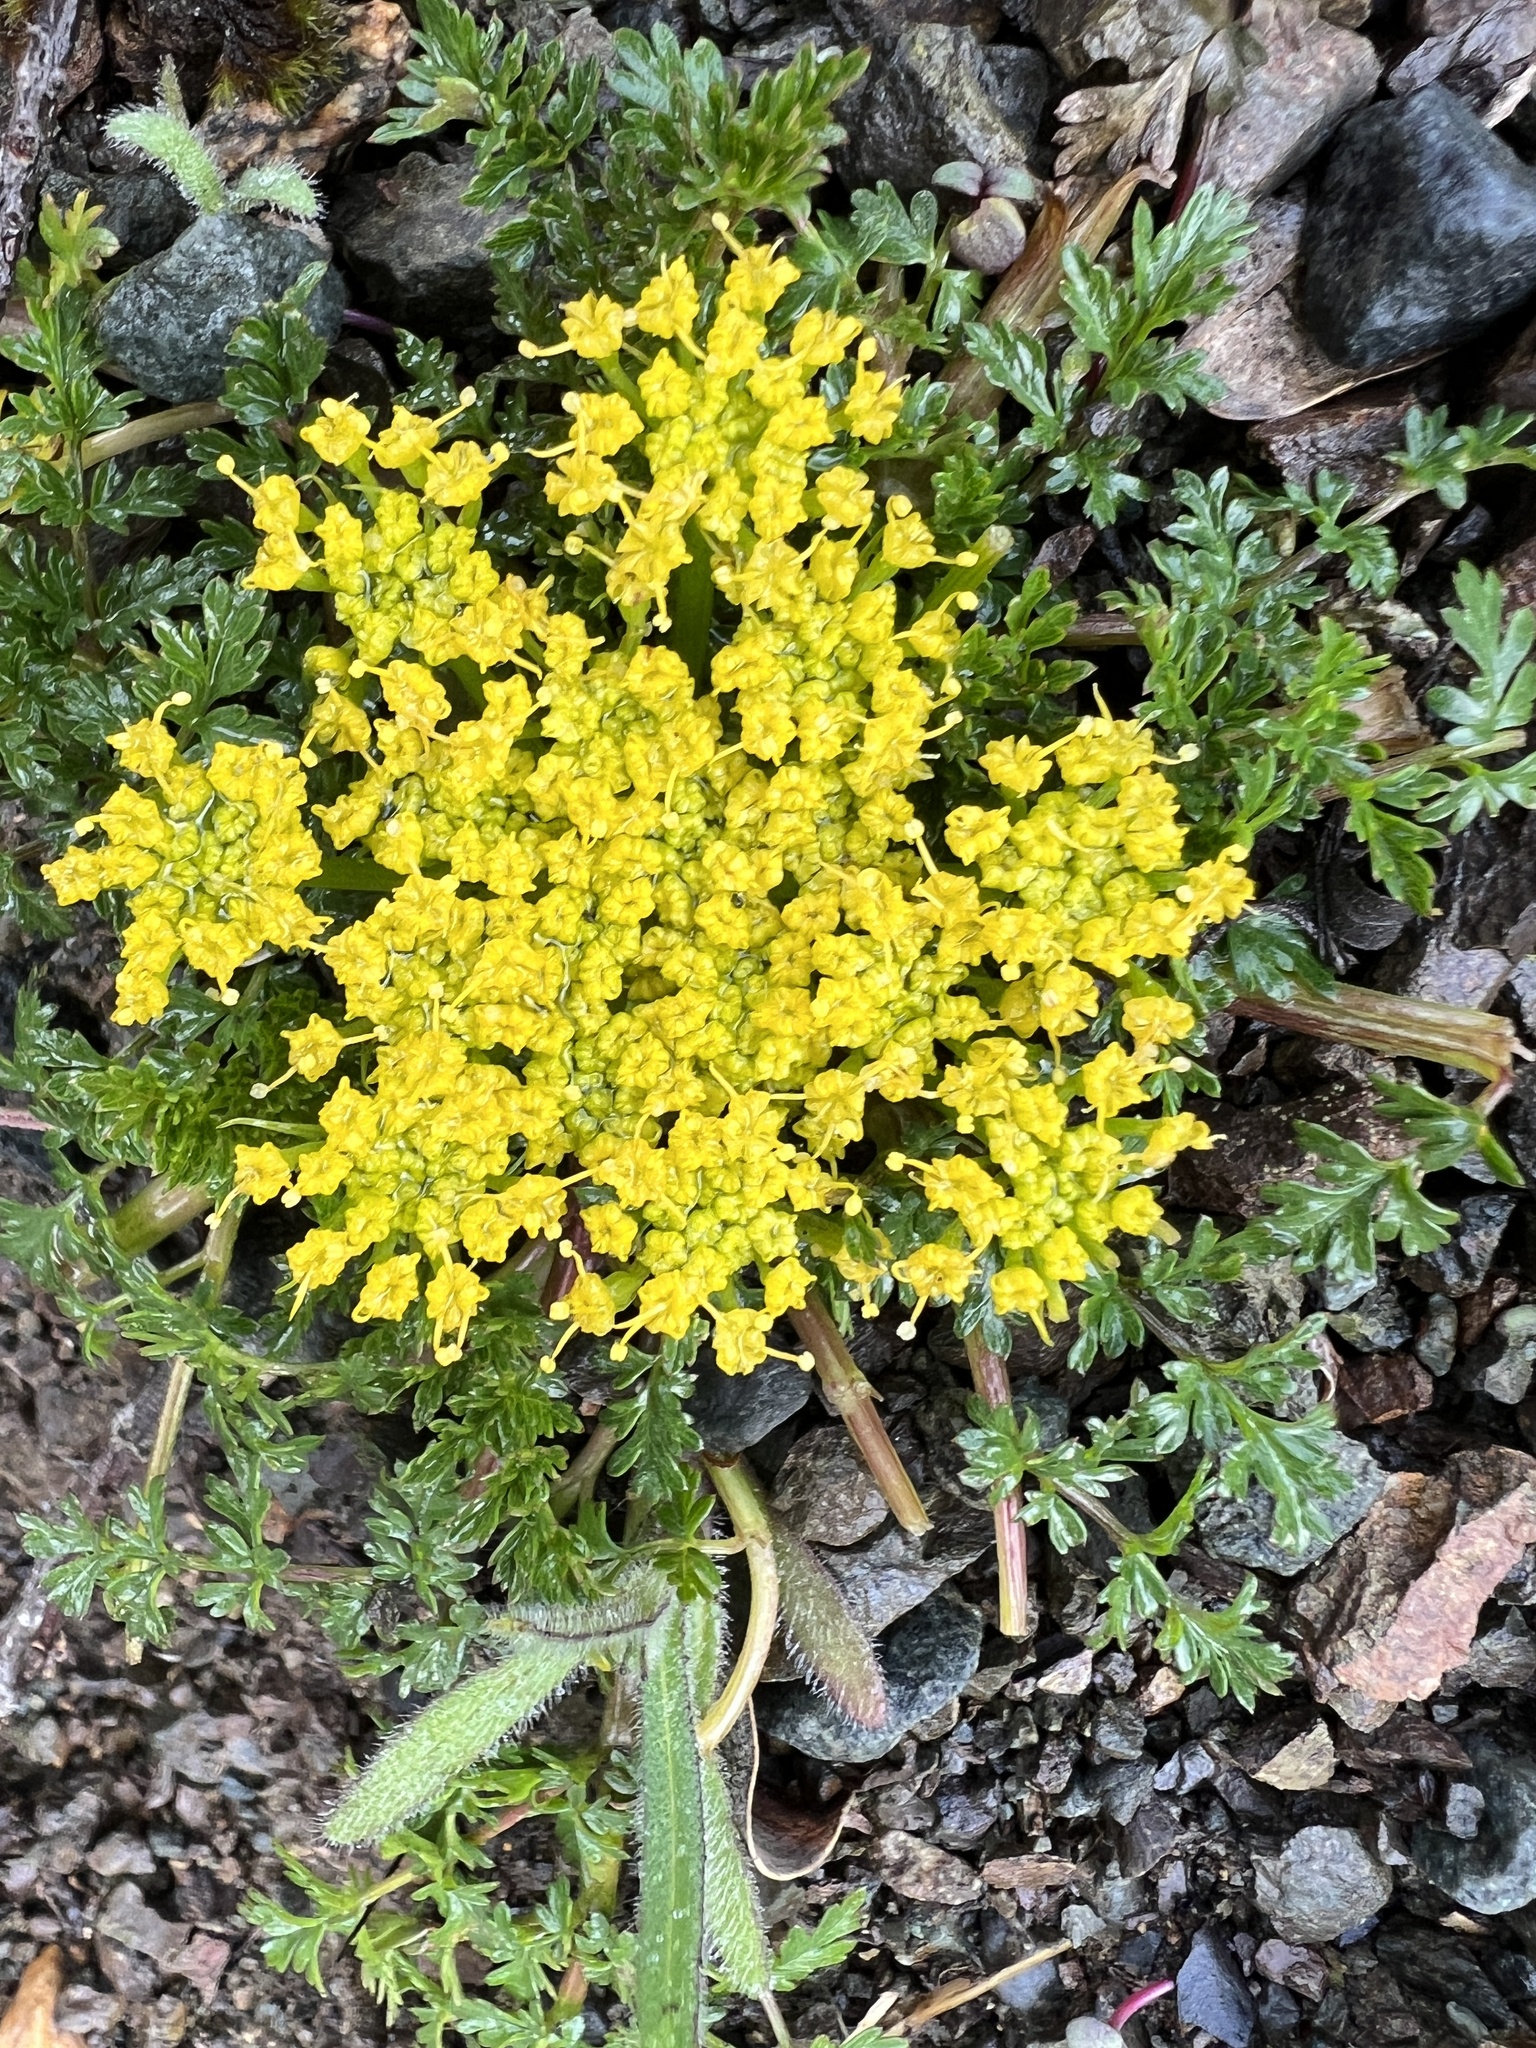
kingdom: Plantae
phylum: Tracheophyta
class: Magnoliopsida
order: Apiales
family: Apiaceae
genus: Lomatium
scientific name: Lomatium hallii
